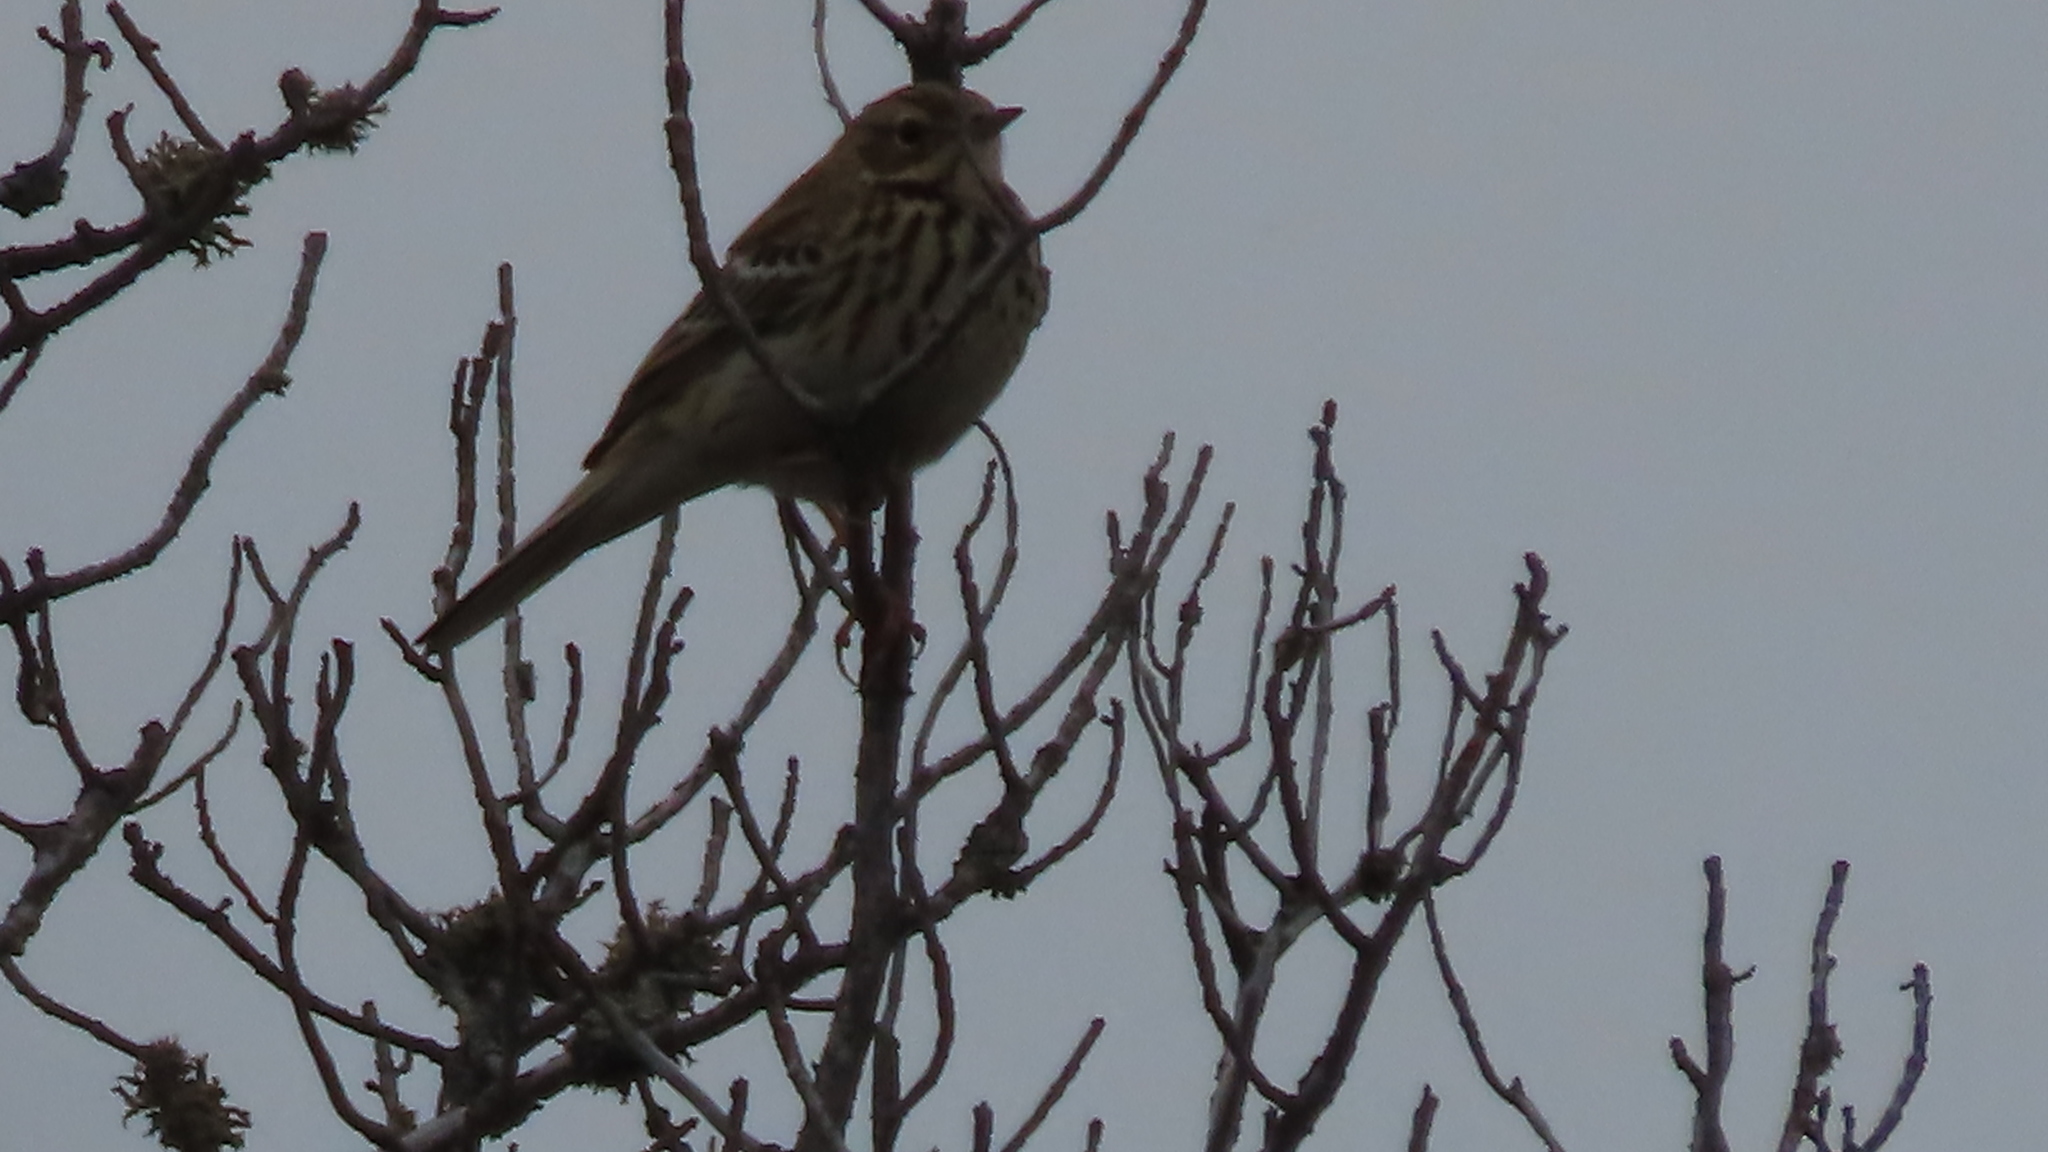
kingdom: Animalia
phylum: Chordata
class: Aves
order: Passeriformes
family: Motacillidae
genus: Anthus
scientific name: Anthus trivialis
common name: Tree pipit
